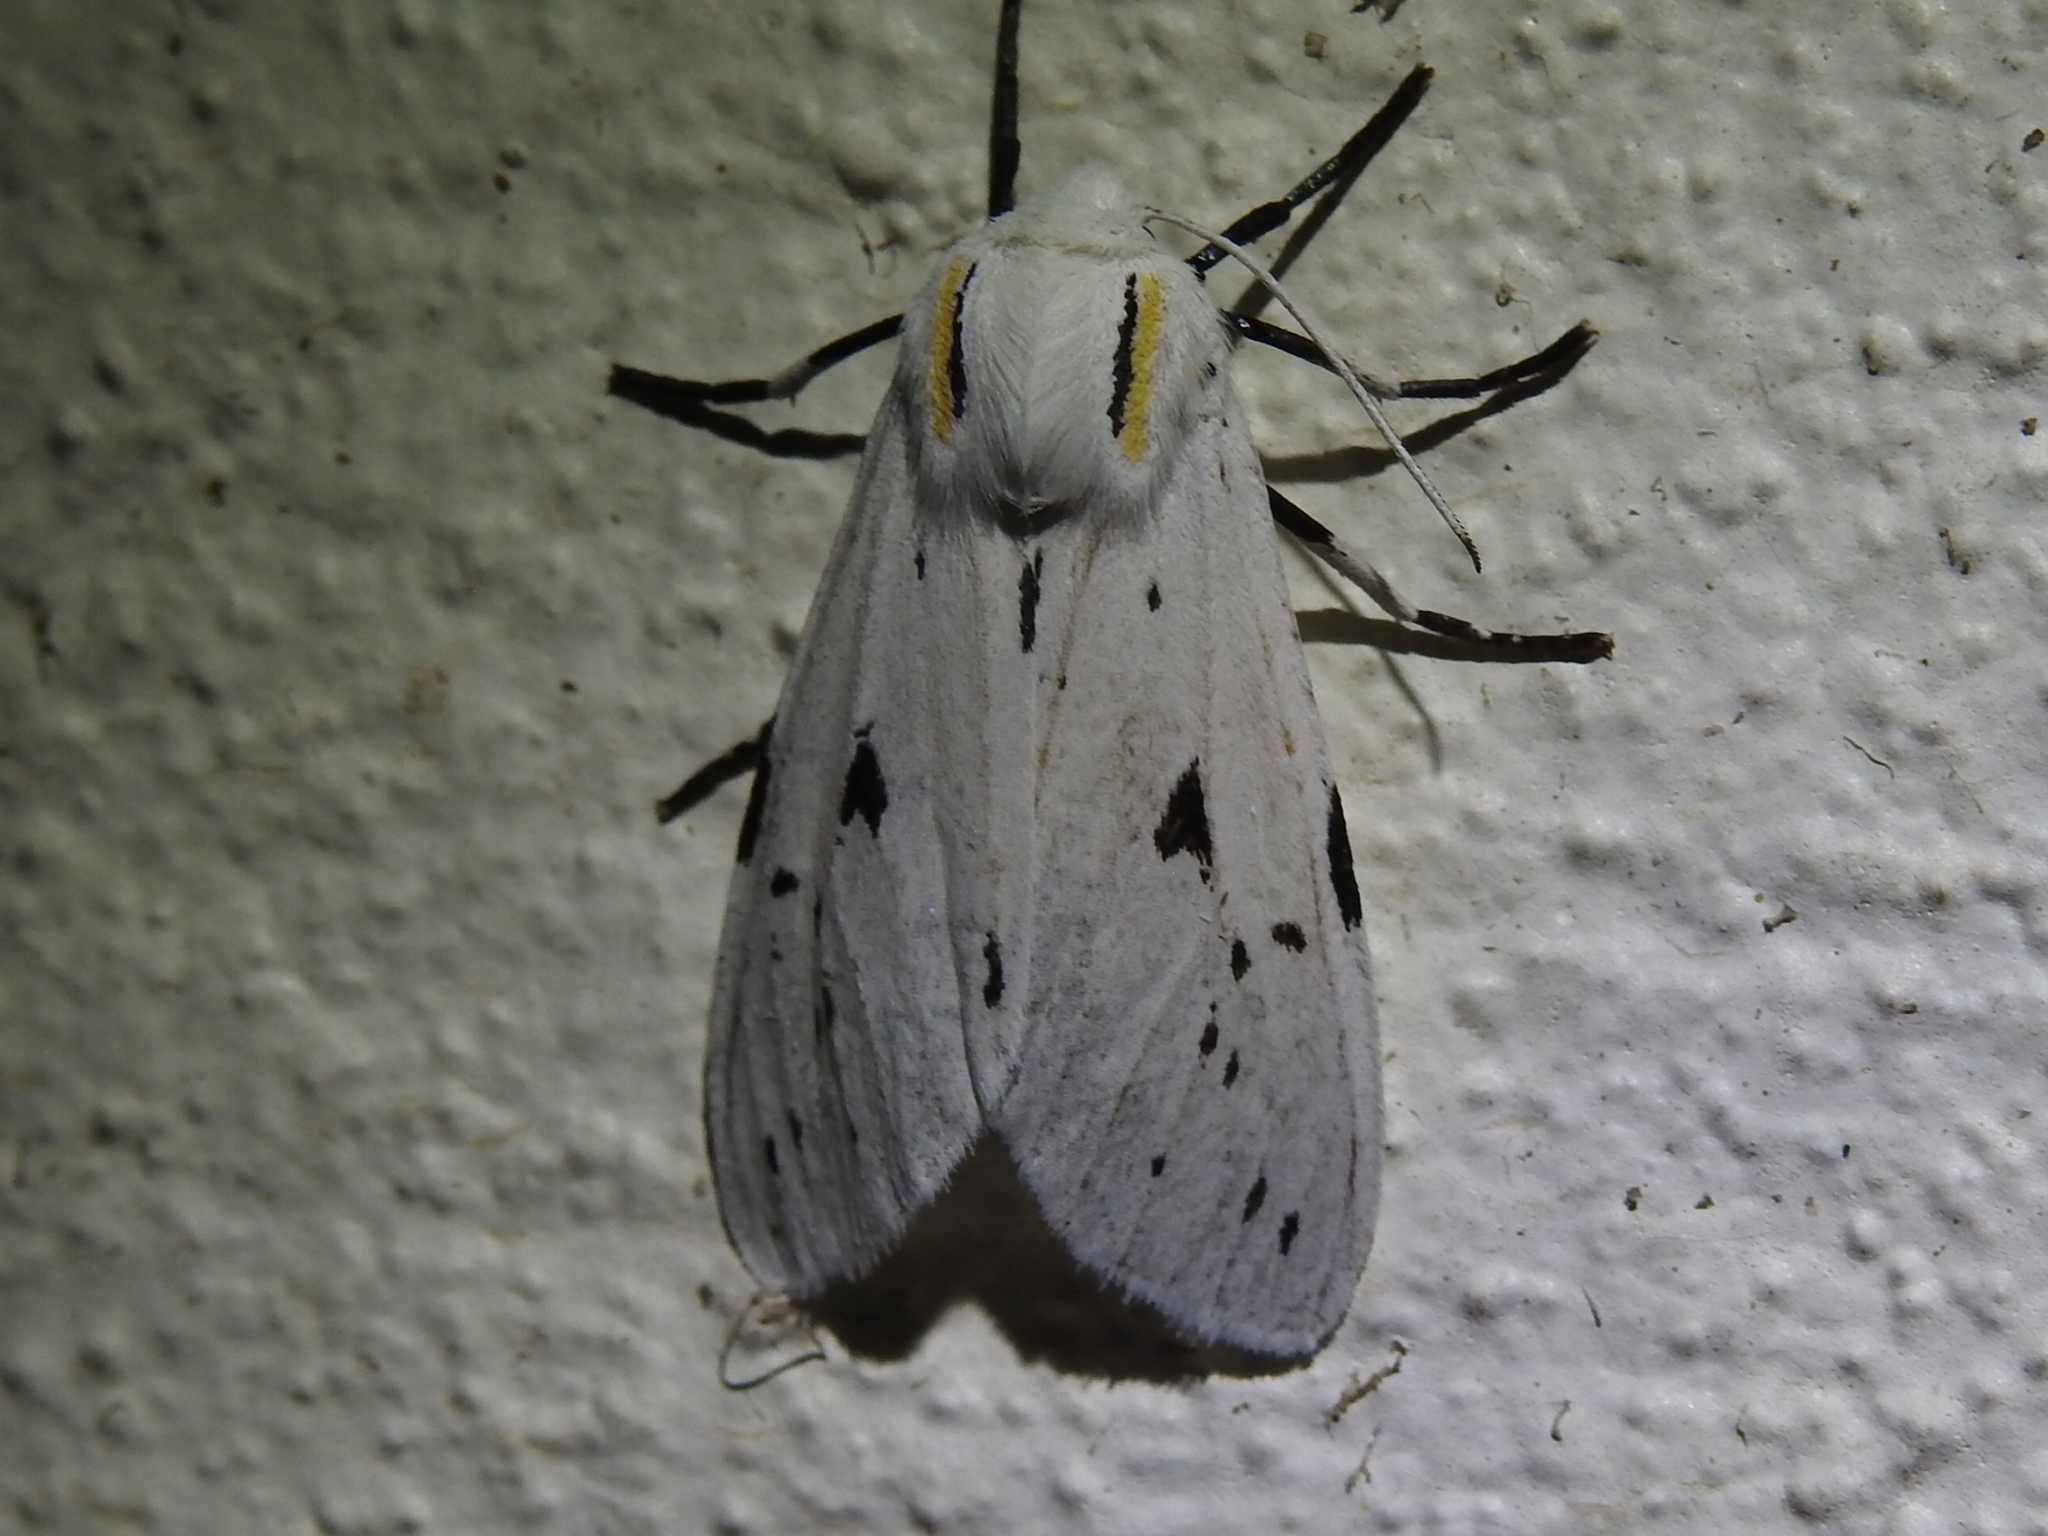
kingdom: Animalia
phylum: Arthropoda
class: Insecta
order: Lepidoptera
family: Erebidae
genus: Ectypia
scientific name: Ectypia bivittata
